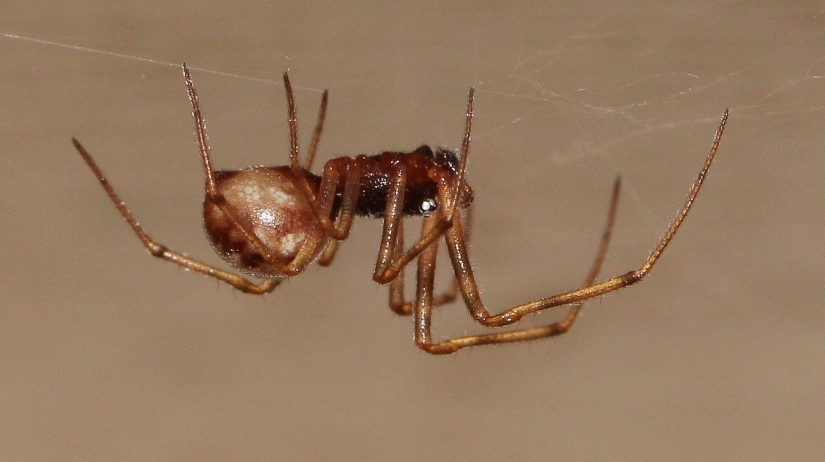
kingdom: Animalia
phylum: Arthropoda
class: Arachnida
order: Araneae
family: Theridiidae
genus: Steatoda
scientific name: Steatoda triangulosa
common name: Triangulate bud spider
